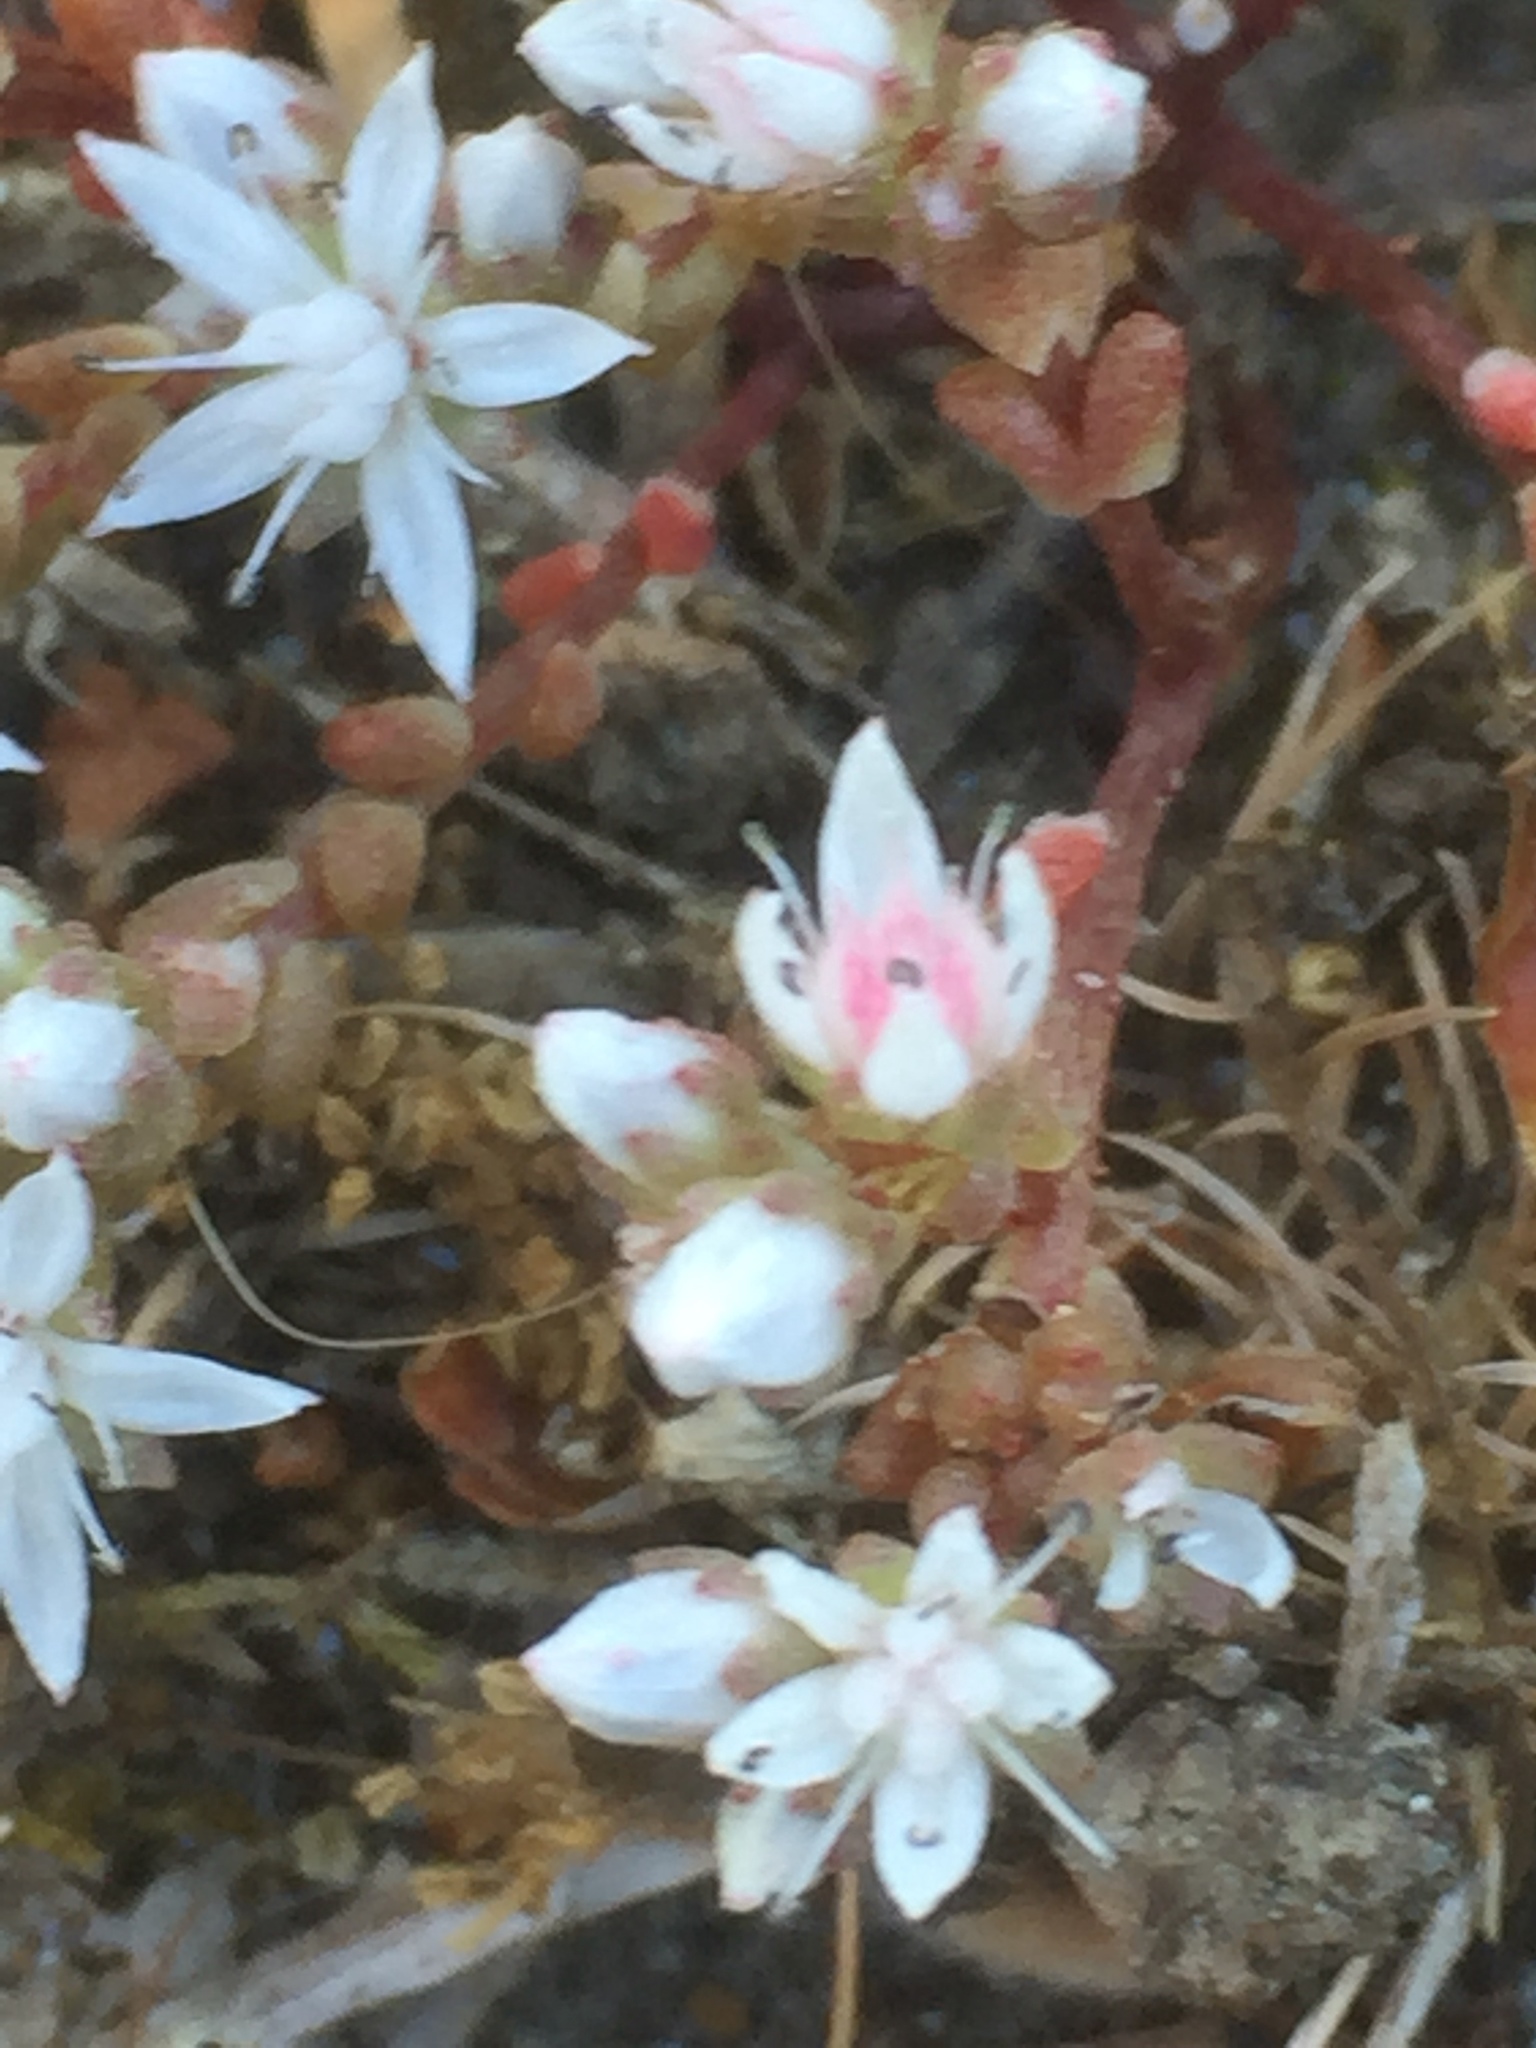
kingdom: Plantae
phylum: Tracheophyta
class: Magnoliopsida
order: Saxifragales
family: Crassulaceae
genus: Sedum
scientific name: Sedum hirsutum
